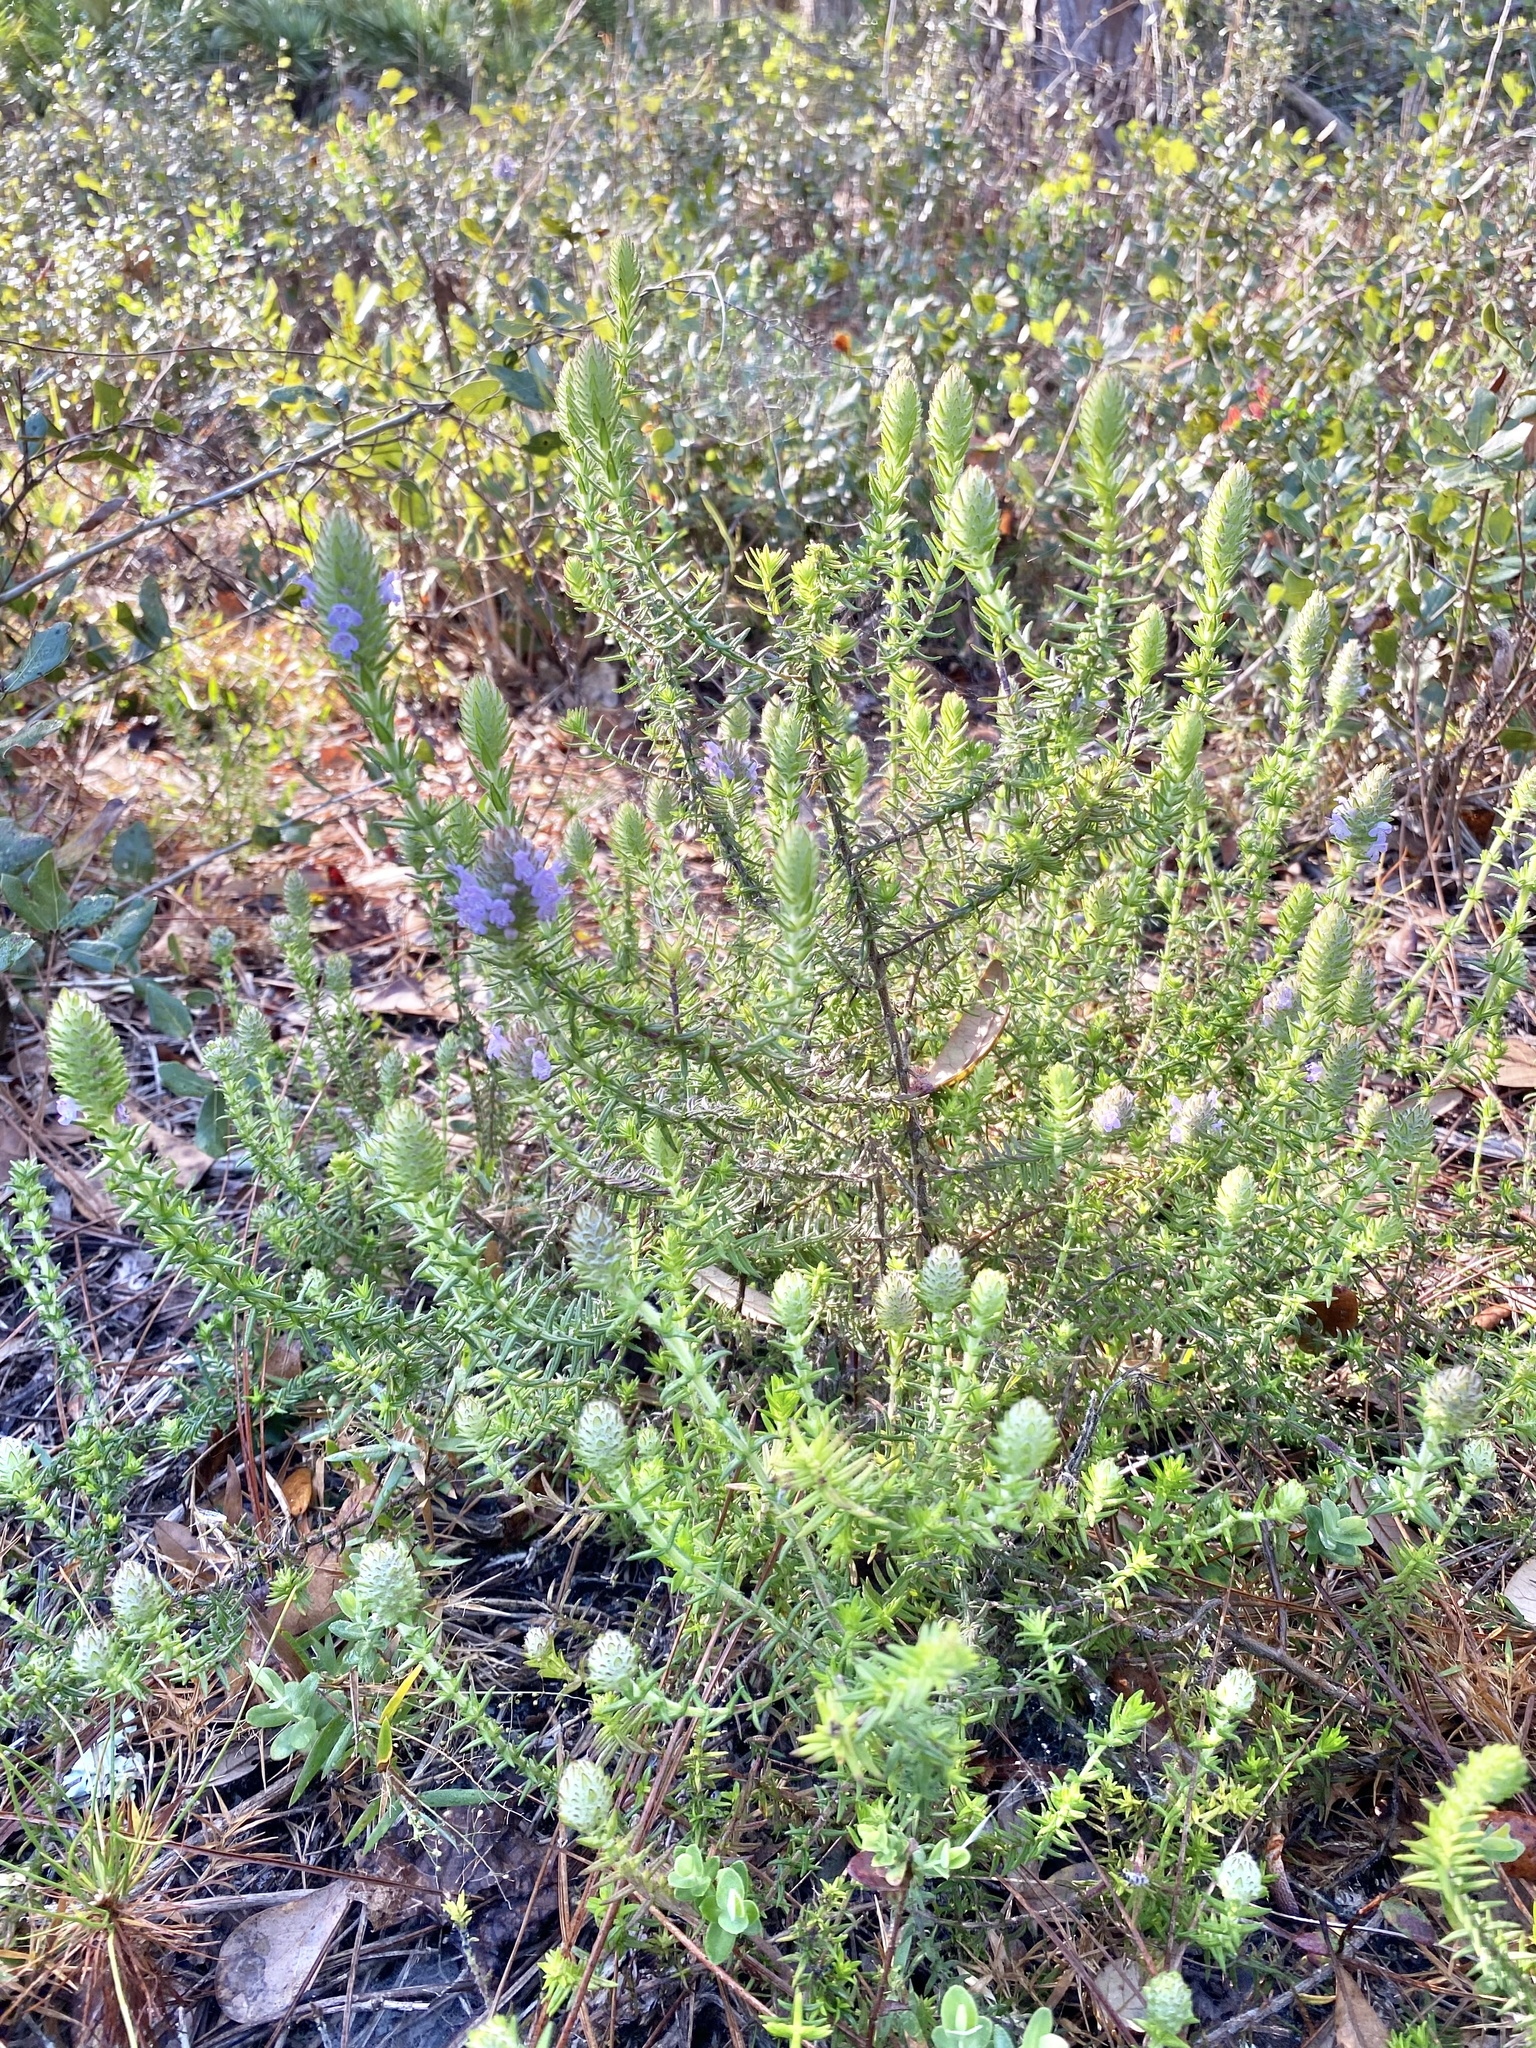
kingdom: Plantae
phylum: Tracheophyta
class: Magnoliopsida
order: Lamiales
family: Lamiaceae
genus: Piloblephis
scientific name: Piloblephis rigida
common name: Wild pennyroyal
